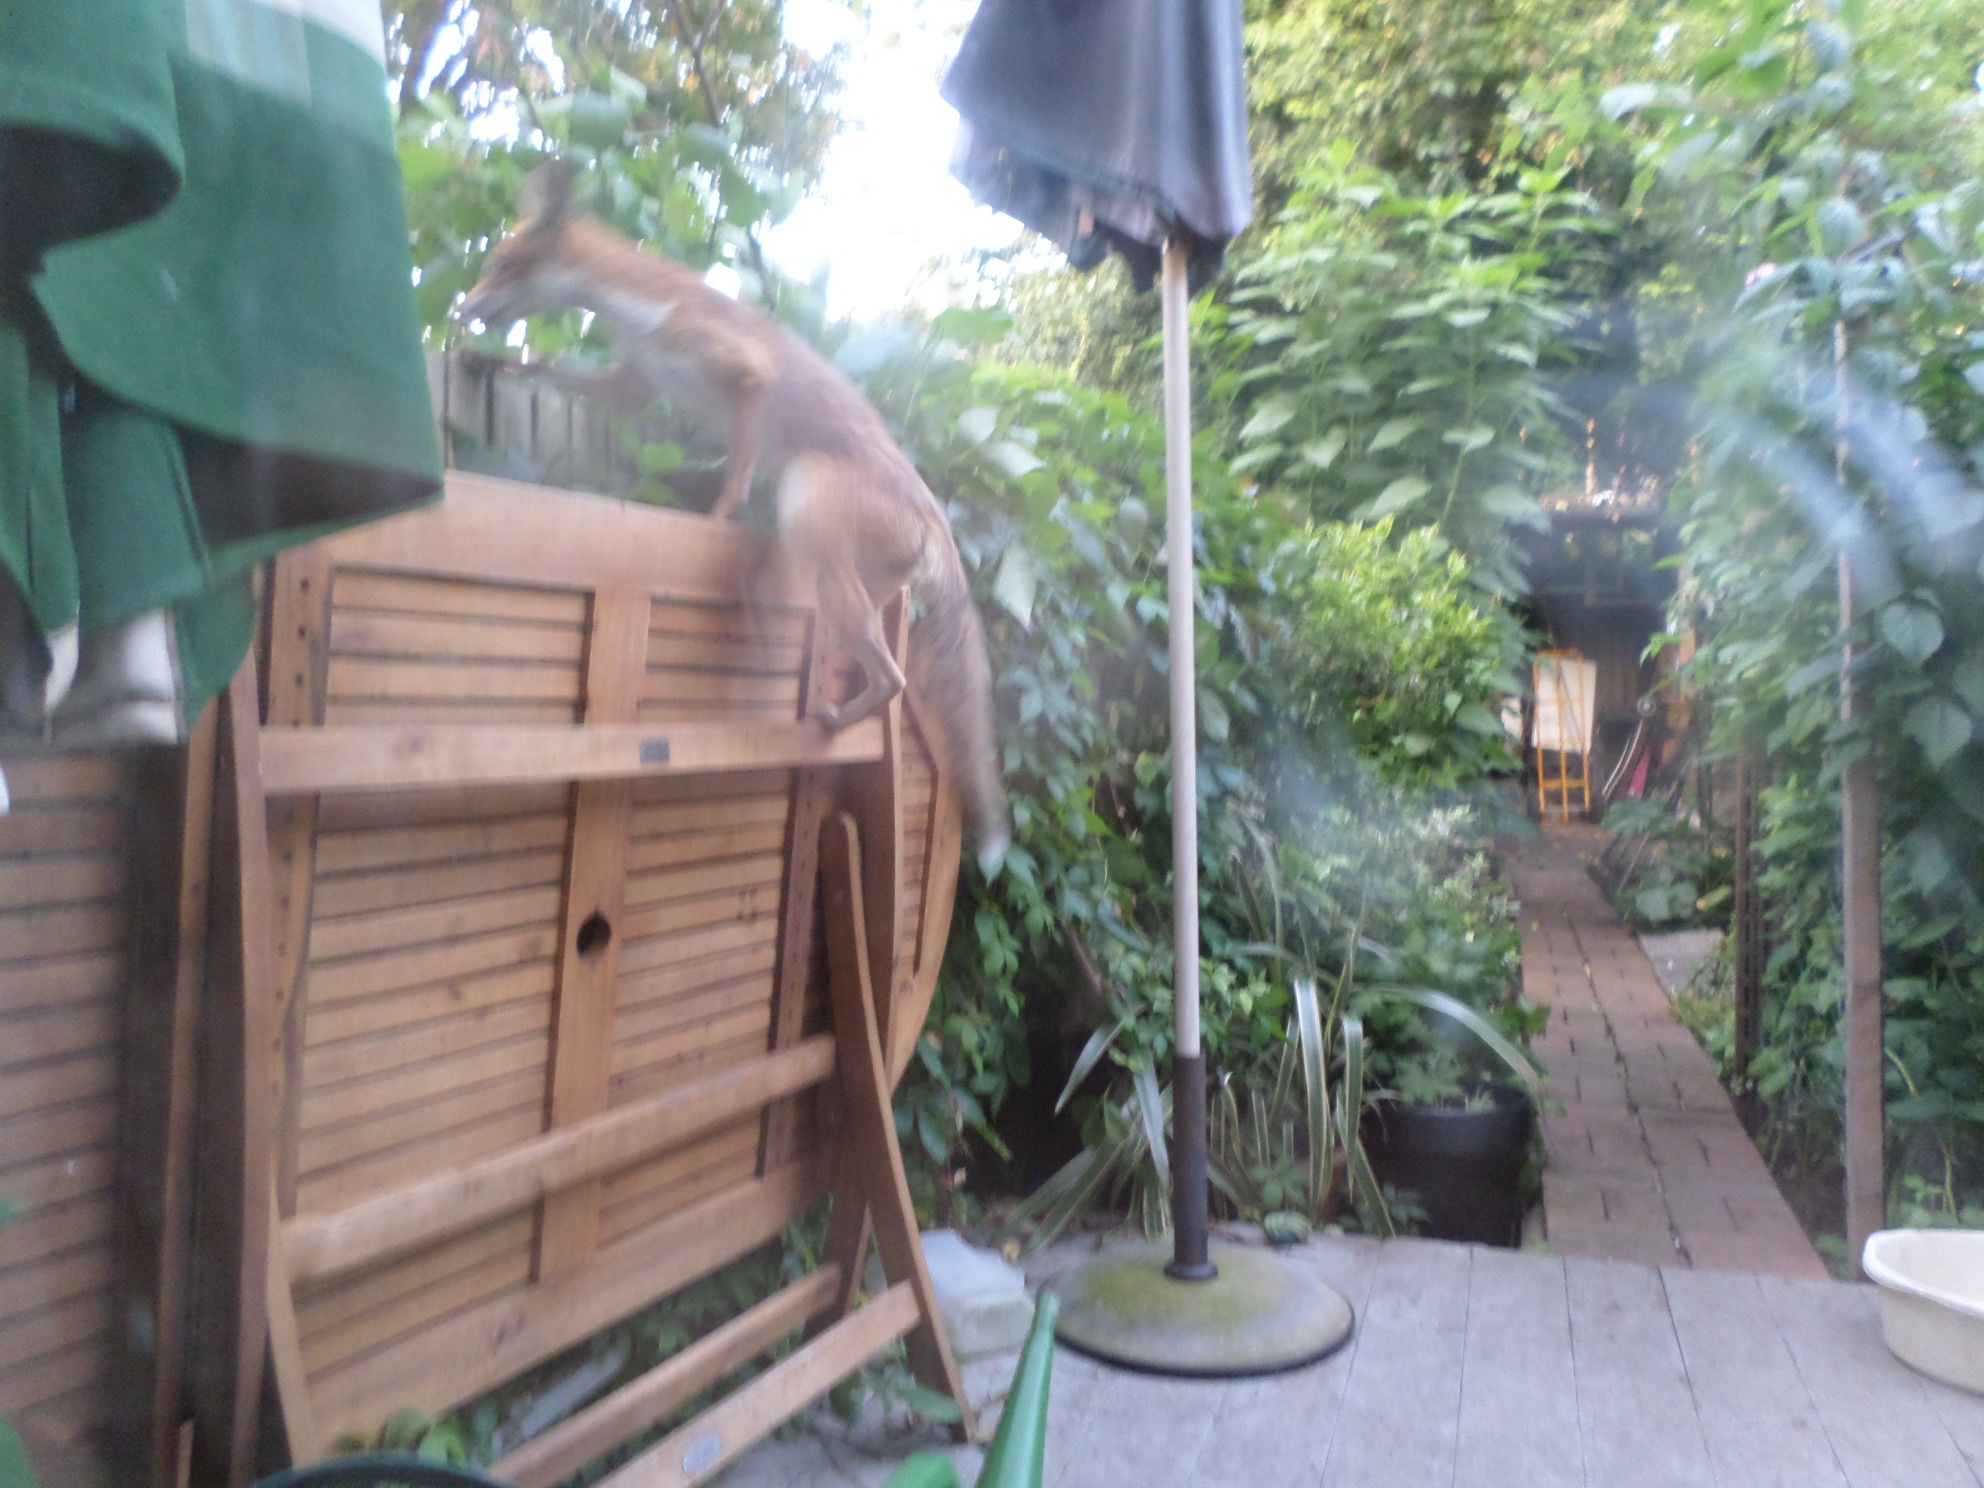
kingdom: Animalia
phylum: Chordata
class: Mammalia
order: Carnivora
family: Canidae
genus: Vulpes
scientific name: Vulpes vulpes
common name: Red fox
